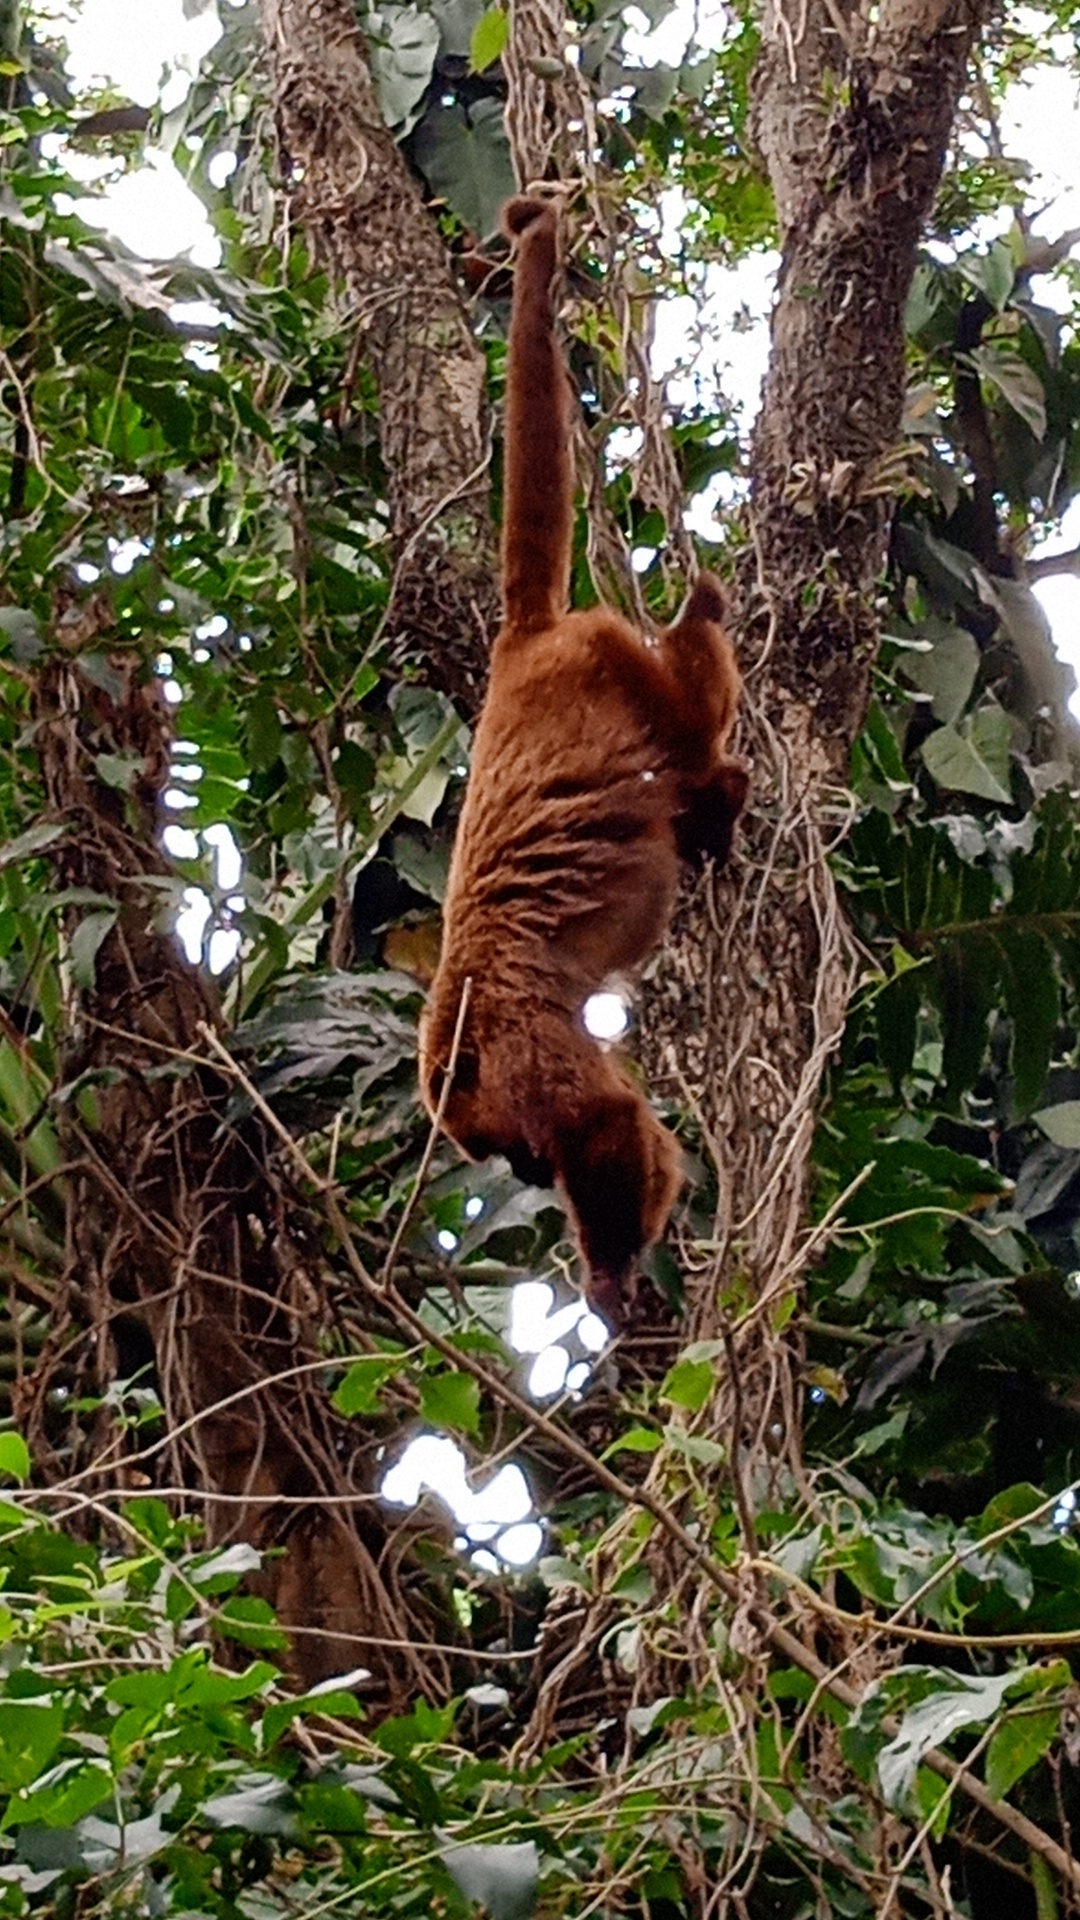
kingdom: Animalia
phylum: Chordata
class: Mammalia
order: Primates
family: Atelidae
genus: Alouatta
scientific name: Alouatta guariba
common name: Brown howler monkey
